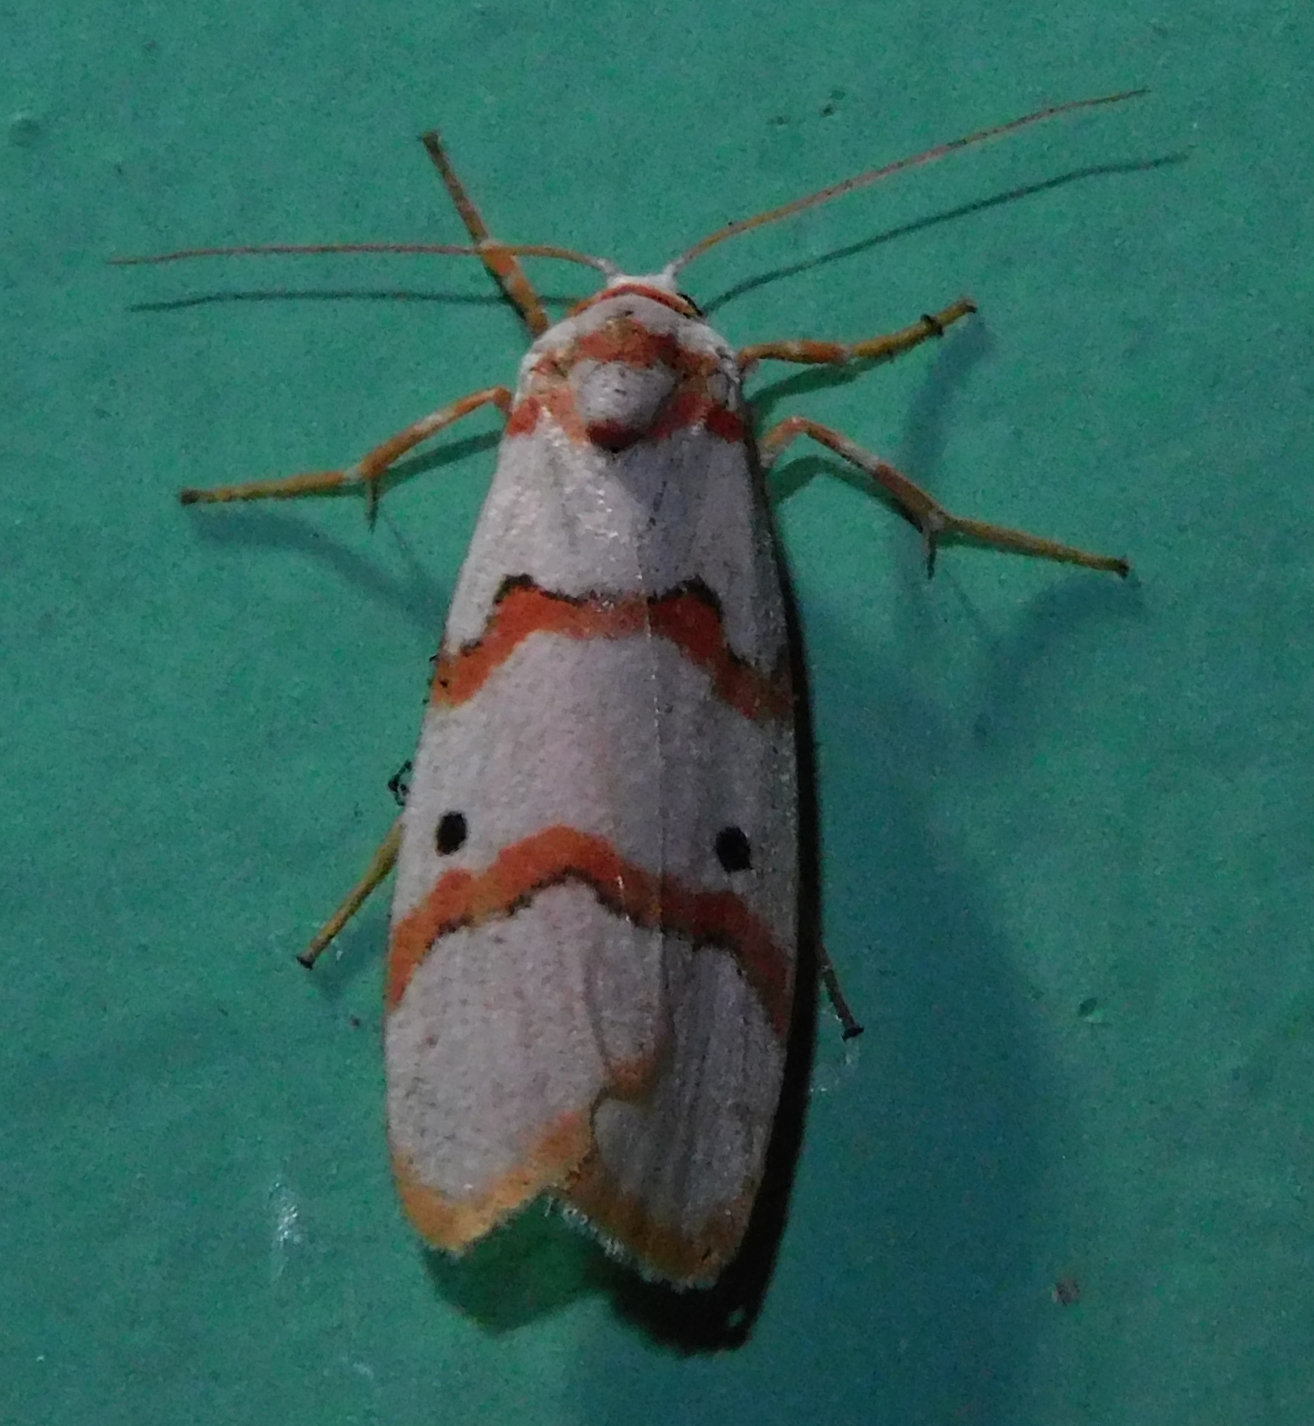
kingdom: Animalia
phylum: Arthropoda
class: Insecta
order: Lepidoptera
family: Erebidae
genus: Cyana
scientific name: Cyana puella
